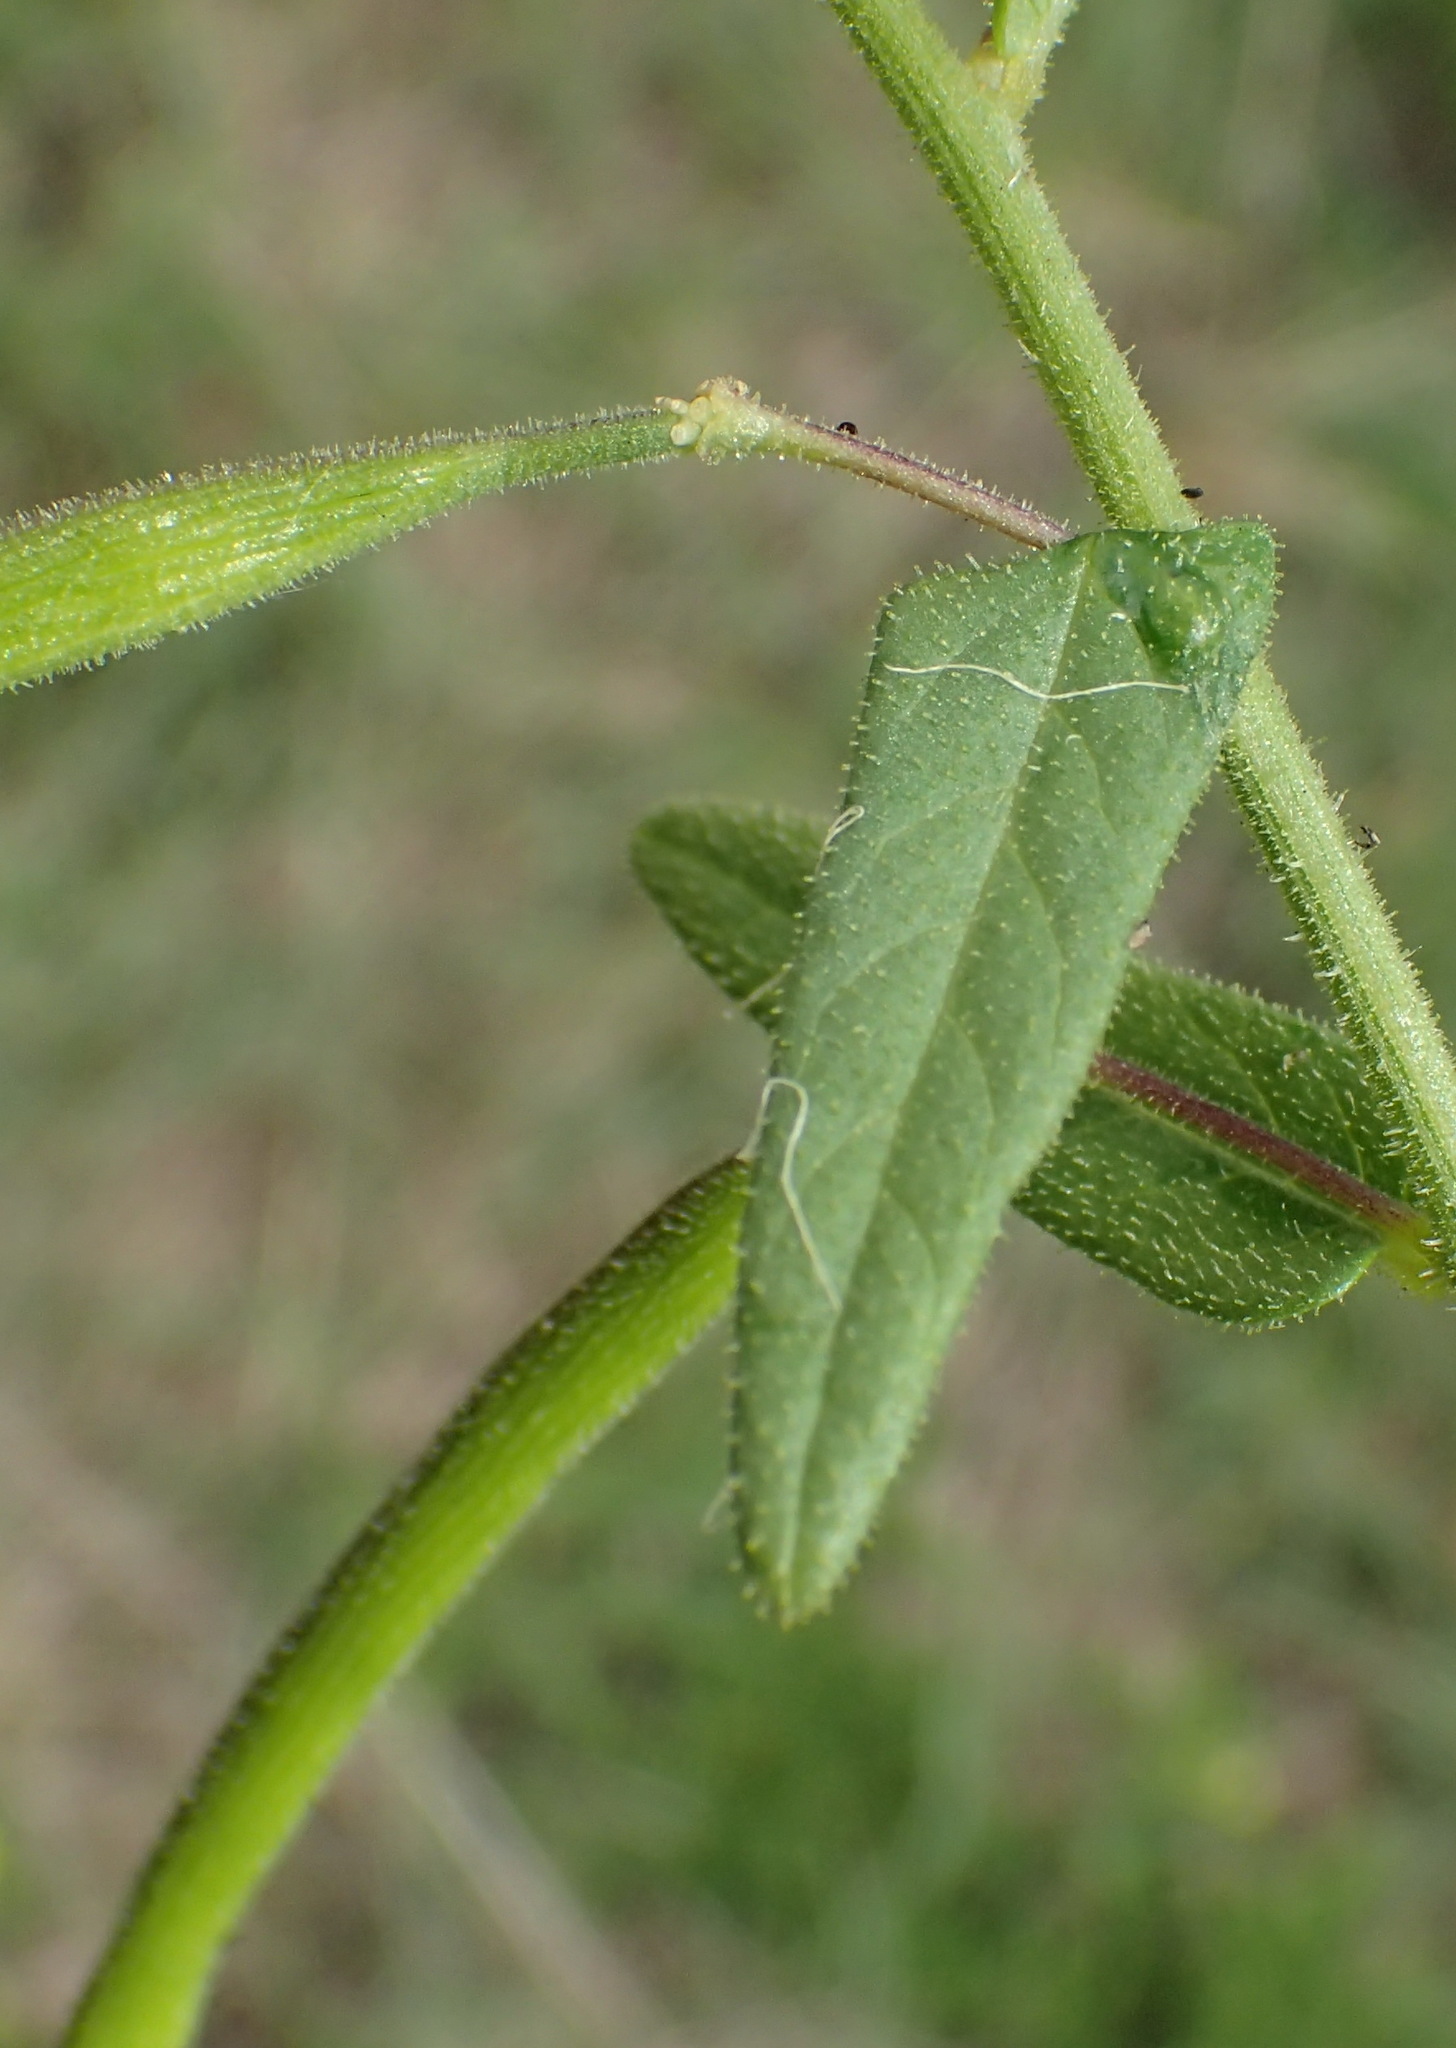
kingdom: Plantae
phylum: Tracheophyta
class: Magnoliopsida
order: Brassicales
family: Cleomaceae
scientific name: Cleomaceae
